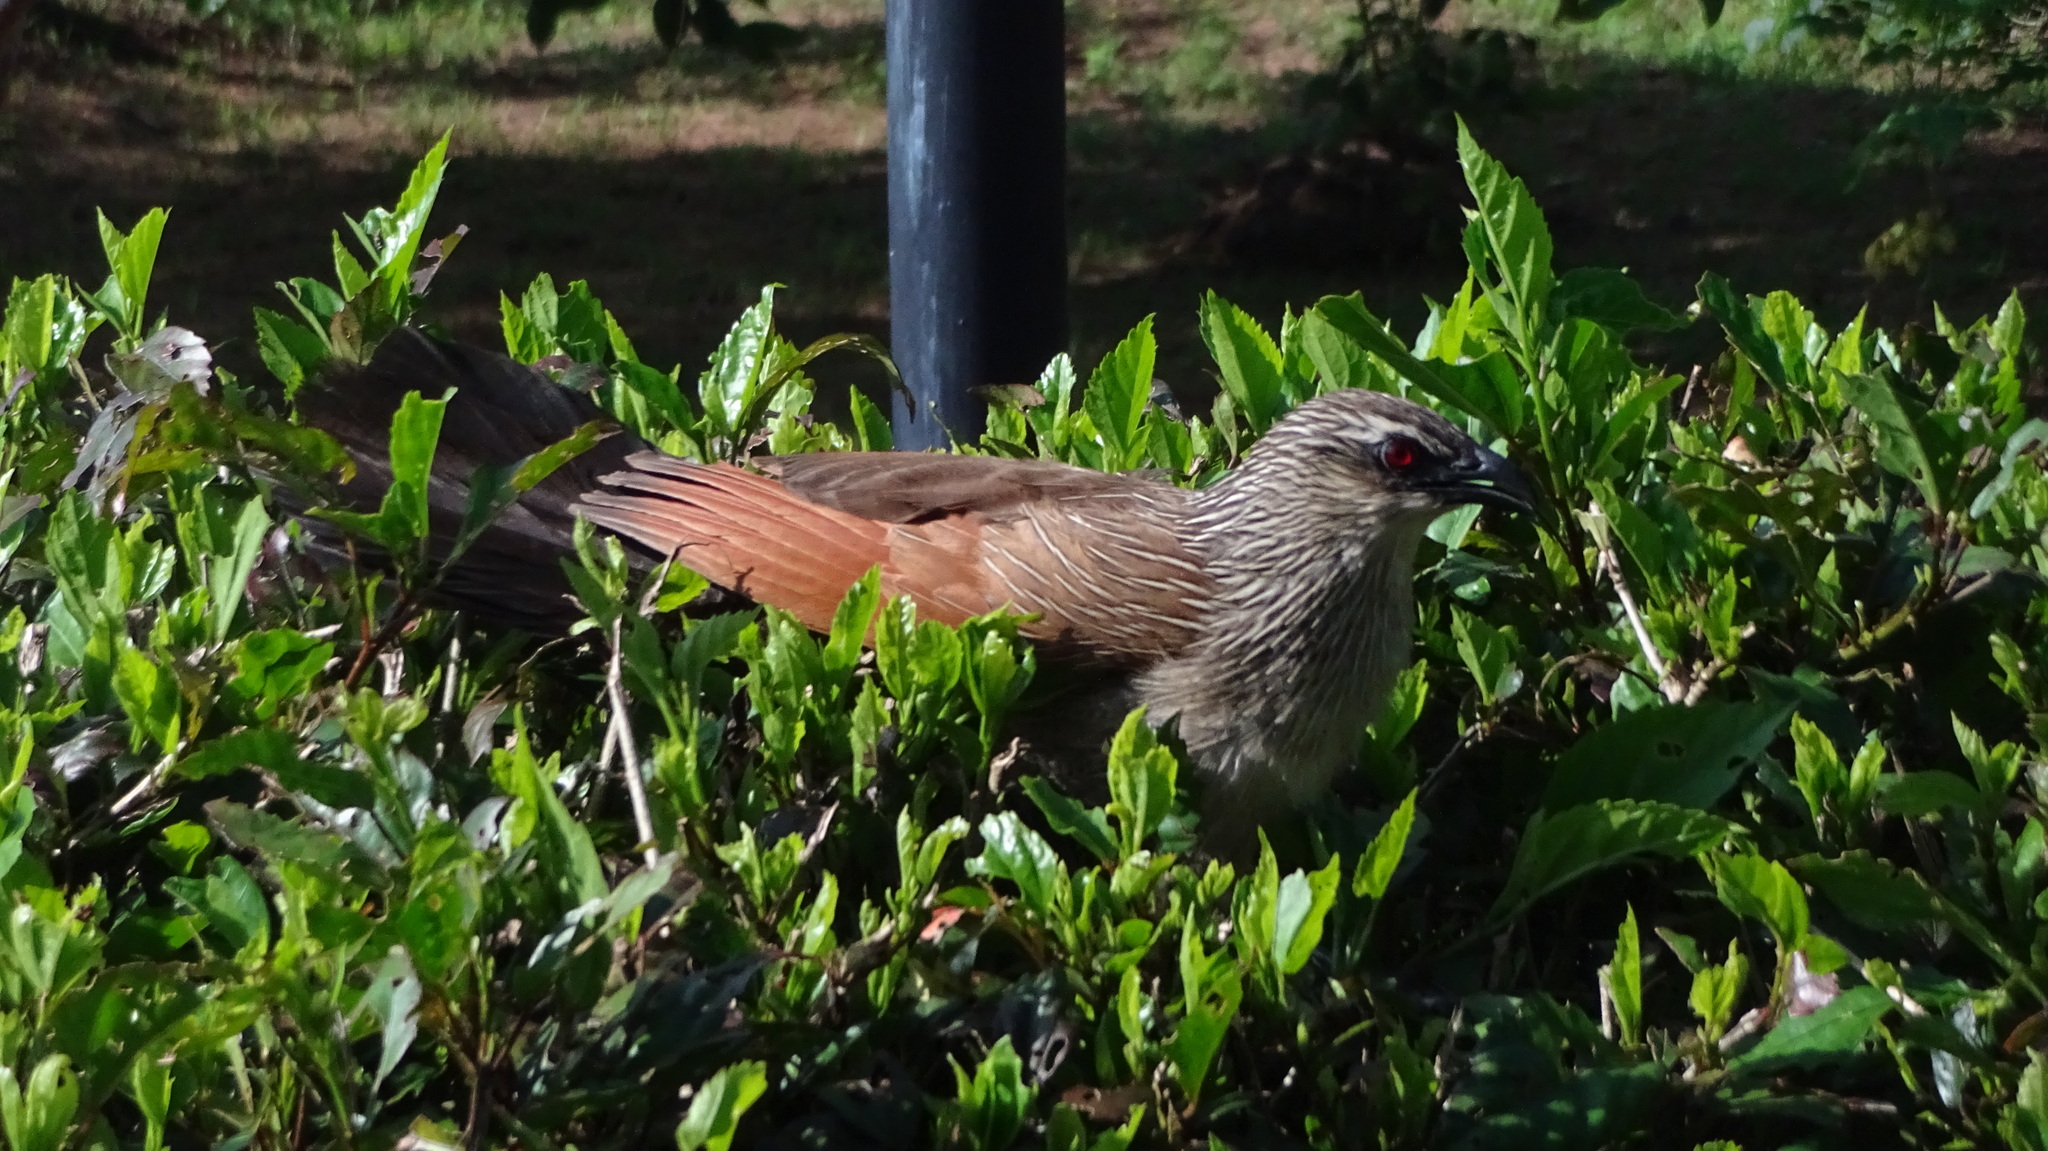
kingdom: Animalia
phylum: Chordata
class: Aves
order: Cuculiformes
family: Cuculidae
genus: Centropus
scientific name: Centropus superciliosus
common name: White-browed coucal
